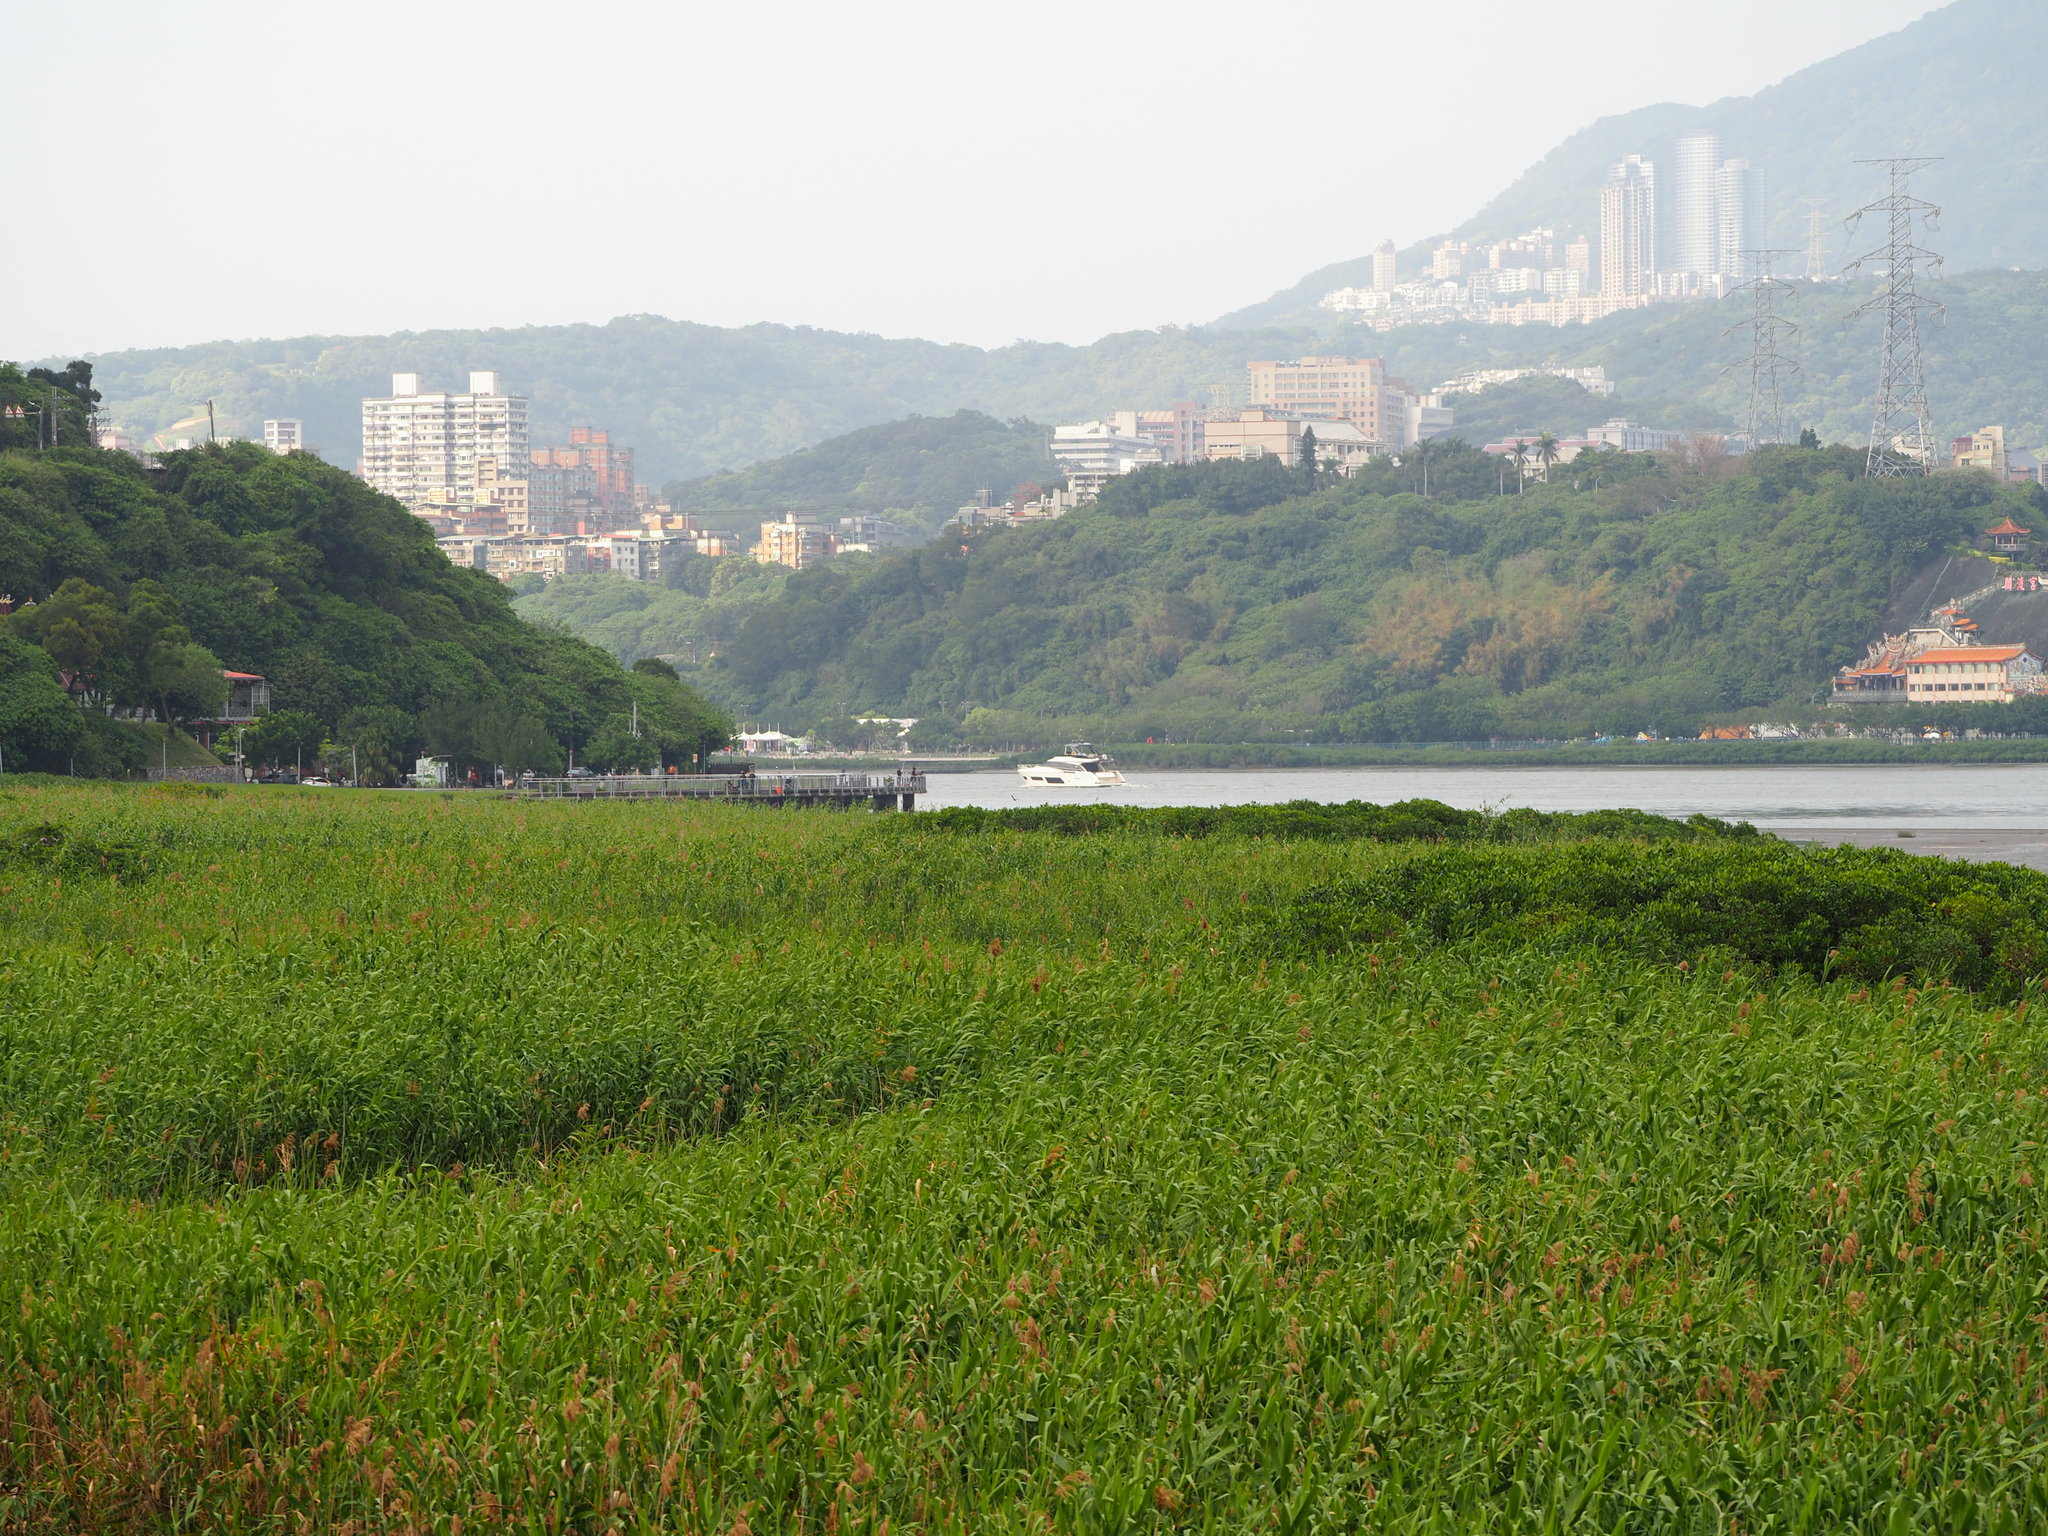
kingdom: Plantae
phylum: Tracheophyta
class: Liliopsida
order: Poales
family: Poaceae
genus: Phragmites
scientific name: Phragmites australis
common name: Common reed
